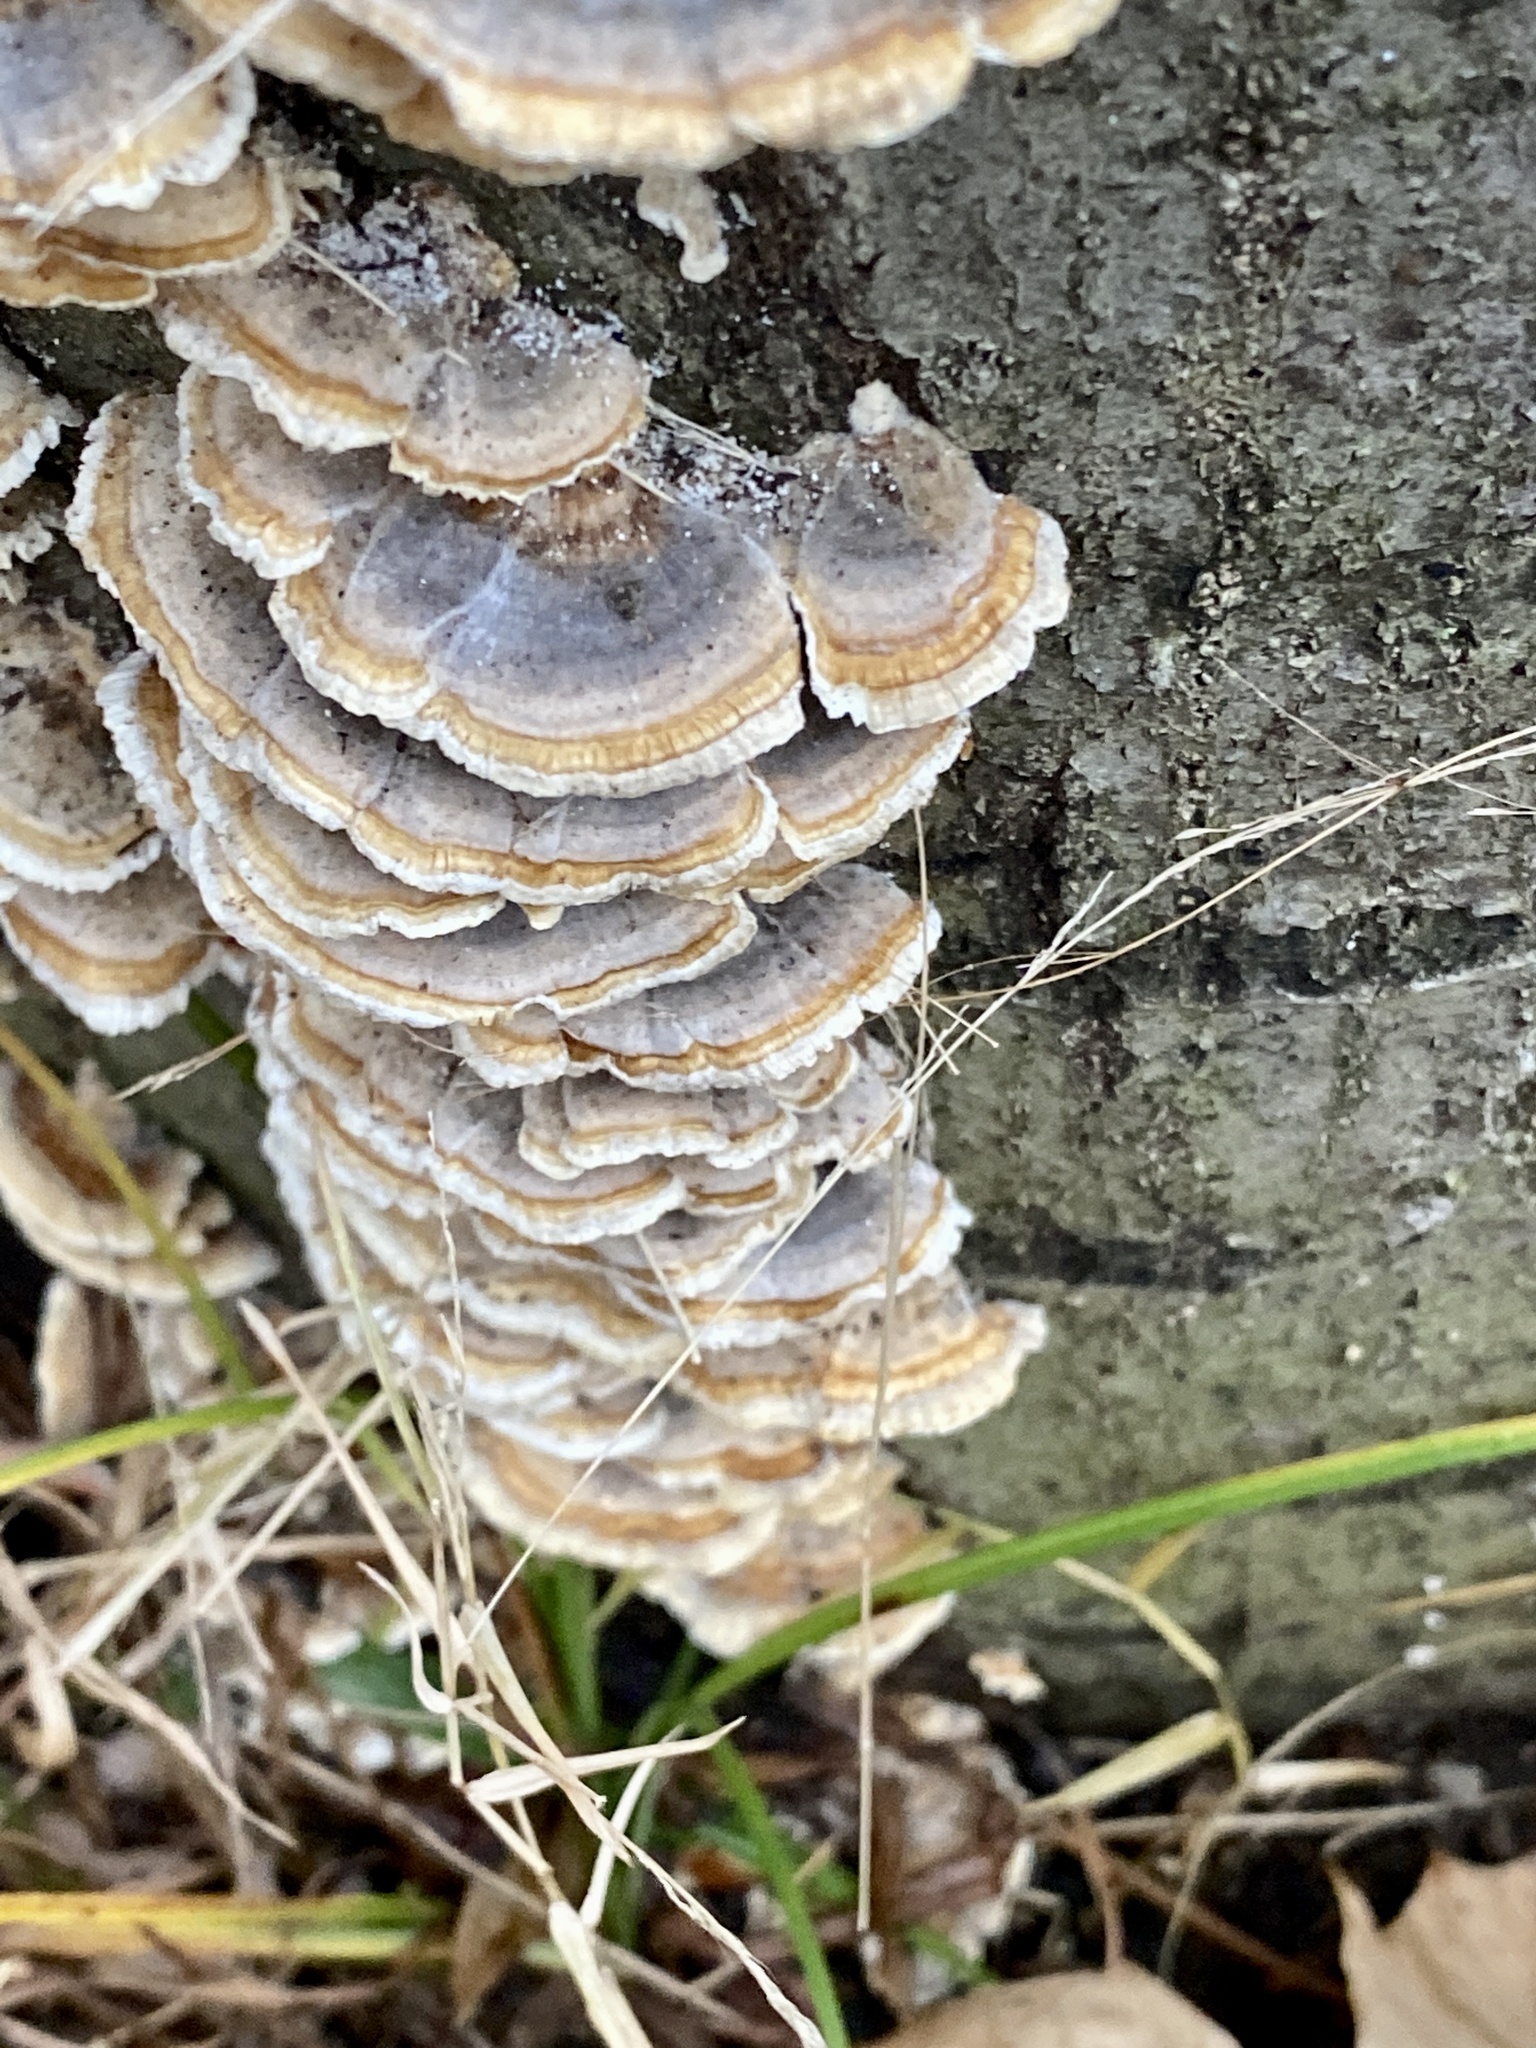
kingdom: Fungi
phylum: Basidiomycota
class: Agaricomycetes
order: Polyporales
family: Polyporaceae
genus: Trametes
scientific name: Trametes versicolor
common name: Turkeytail
